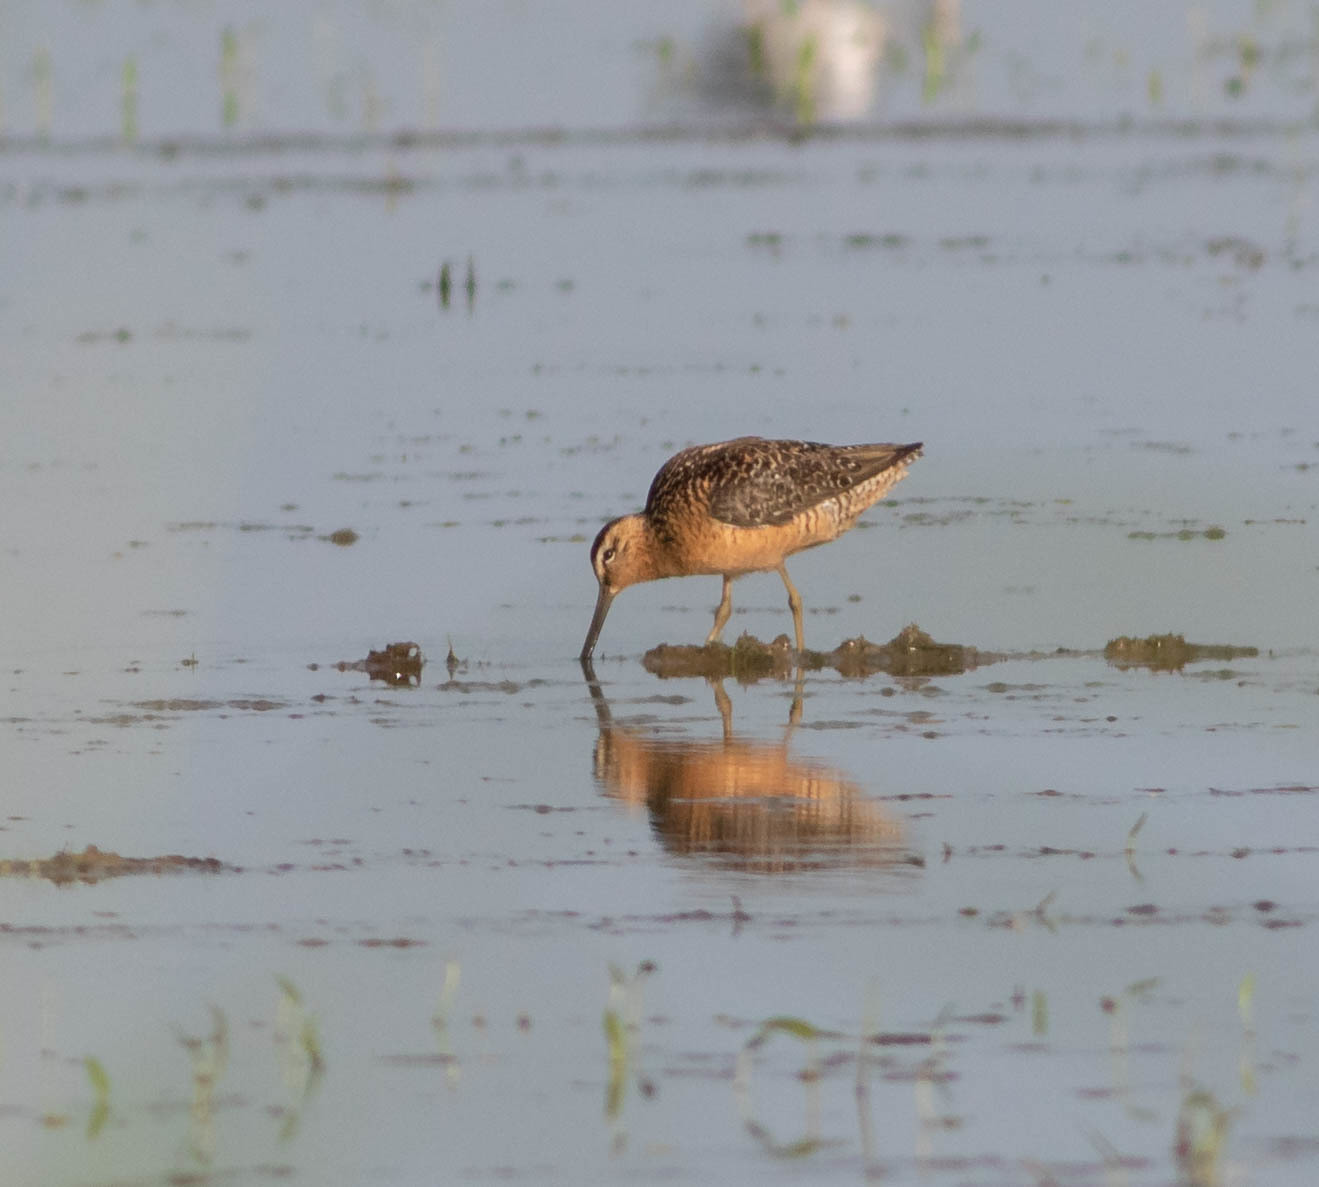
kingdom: Animalia
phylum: Chordata
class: Aves
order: Charadriiformes
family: Scolopacidae
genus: Limnodromus
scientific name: Limnodromus scolopaceus
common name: Long-billed dowitcher
